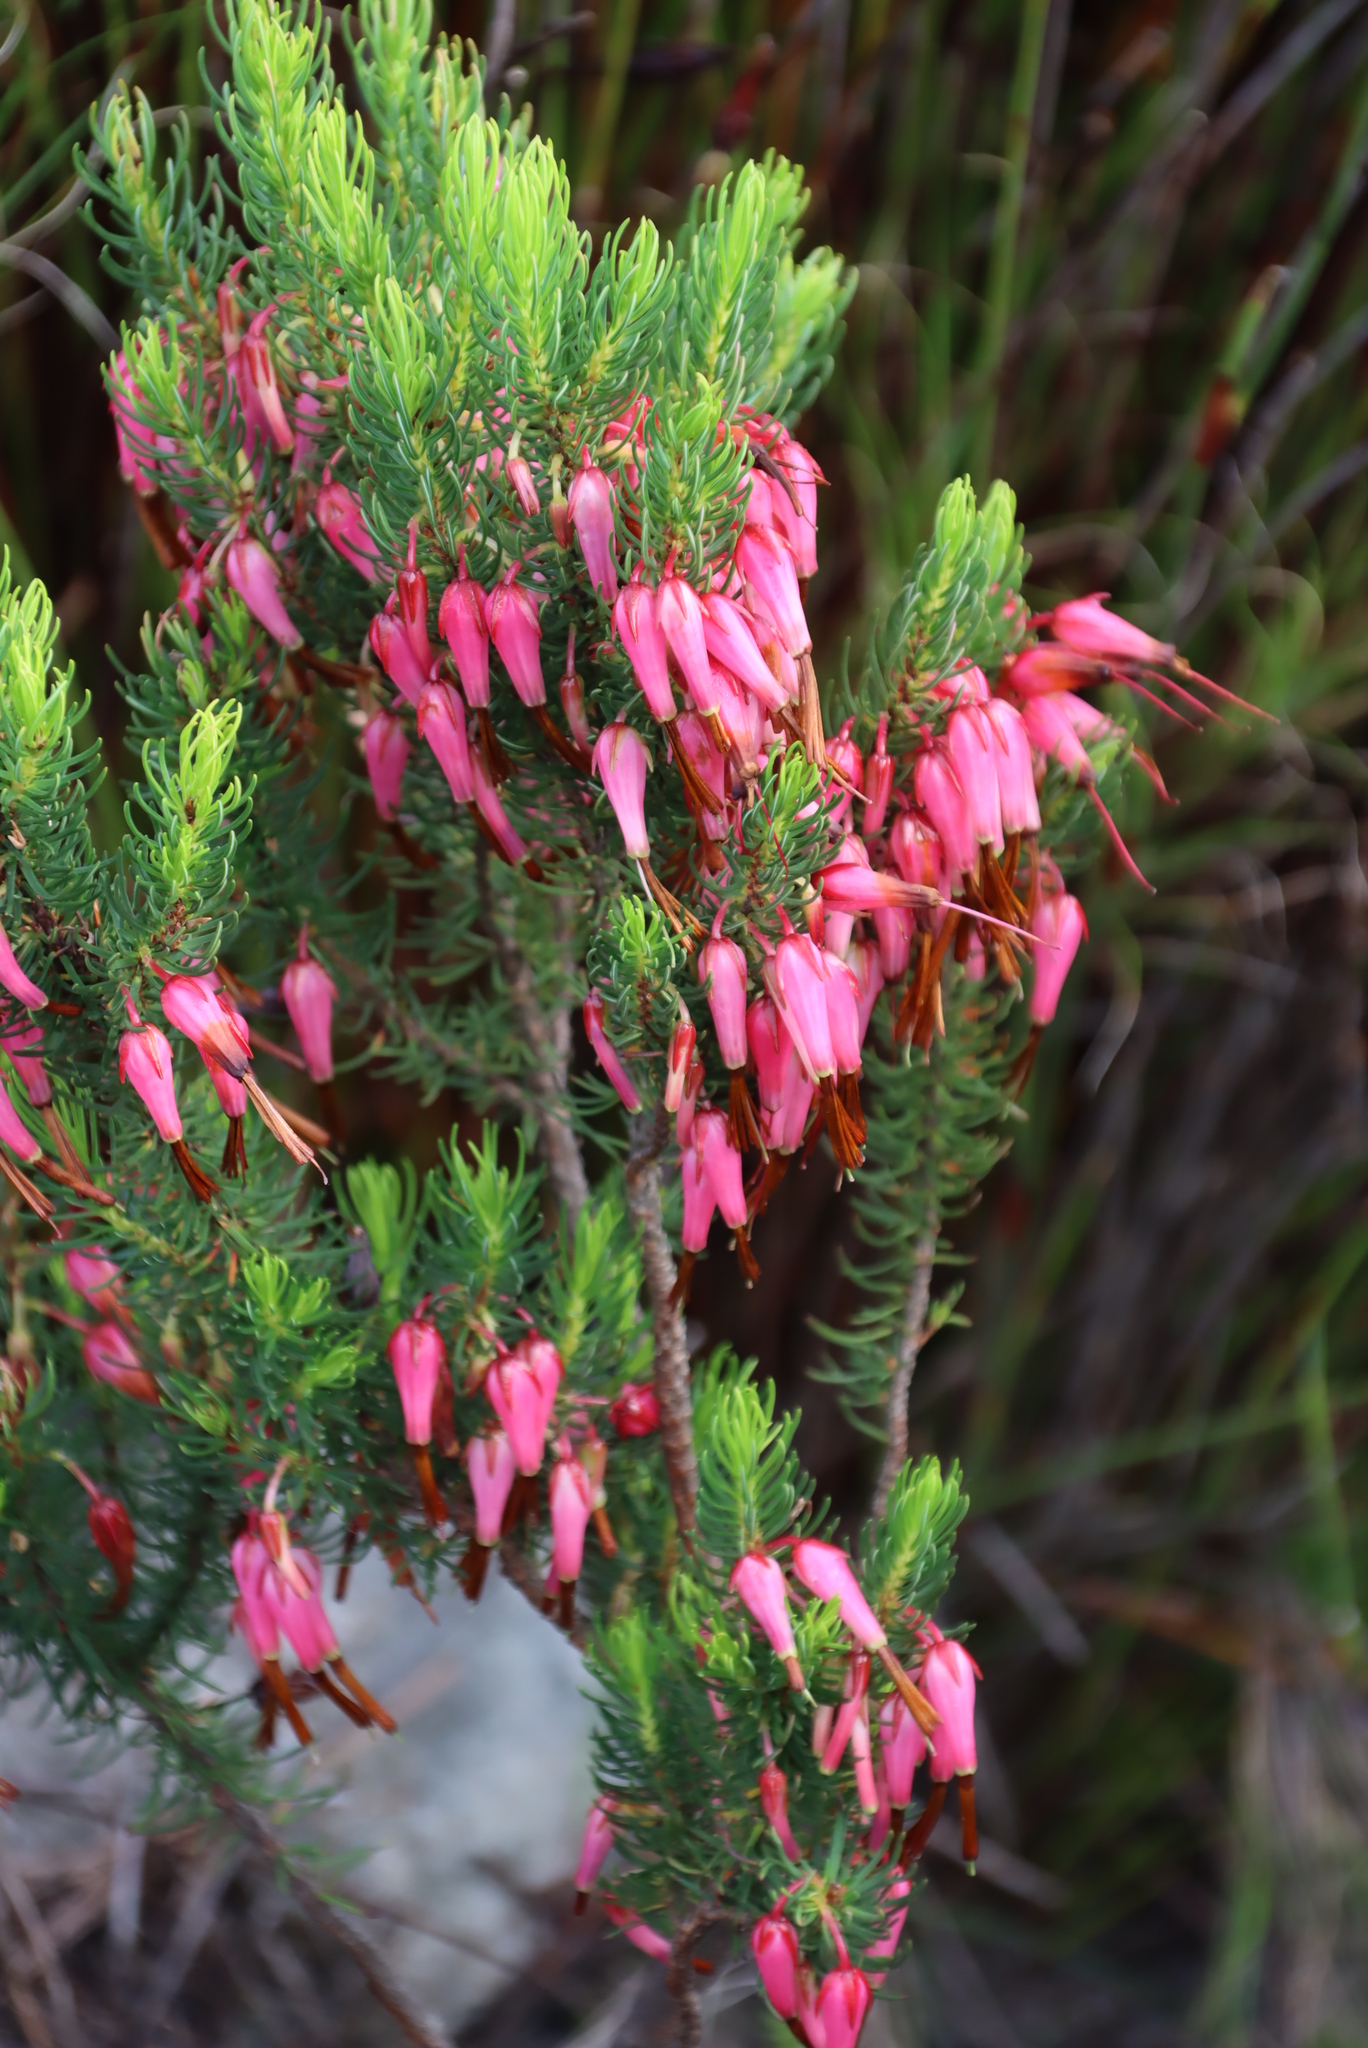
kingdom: Plantae
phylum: Tracheophyta
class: Magnoliopsida
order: Ericales
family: Ericaceae
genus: Erica
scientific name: Erica plukenetii
